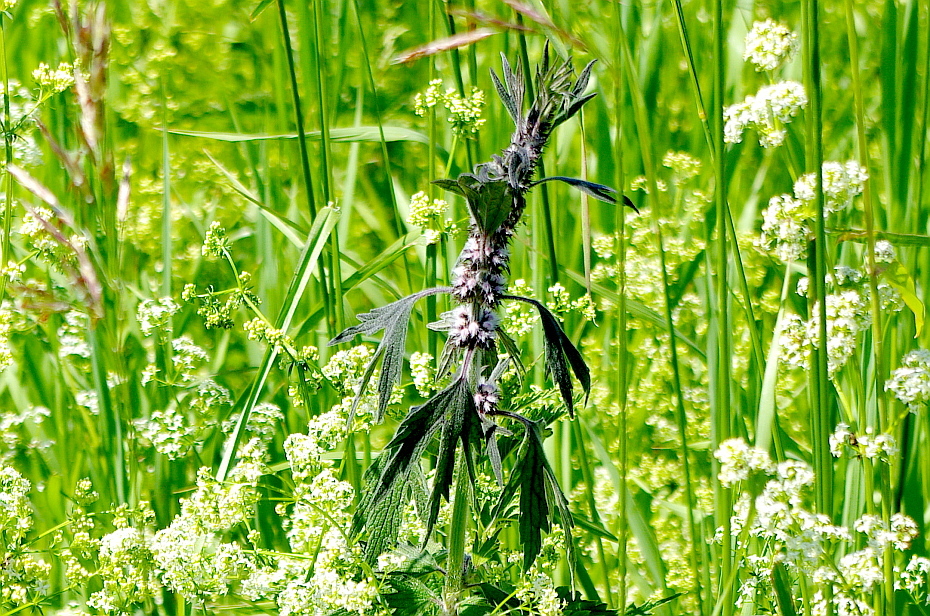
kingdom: Plantae
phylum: Tracheophyta
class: Magnoliopsida
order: Lamiales
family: Lamiaceae
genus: Leonurus
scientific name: Leonurus quinquelobatus
